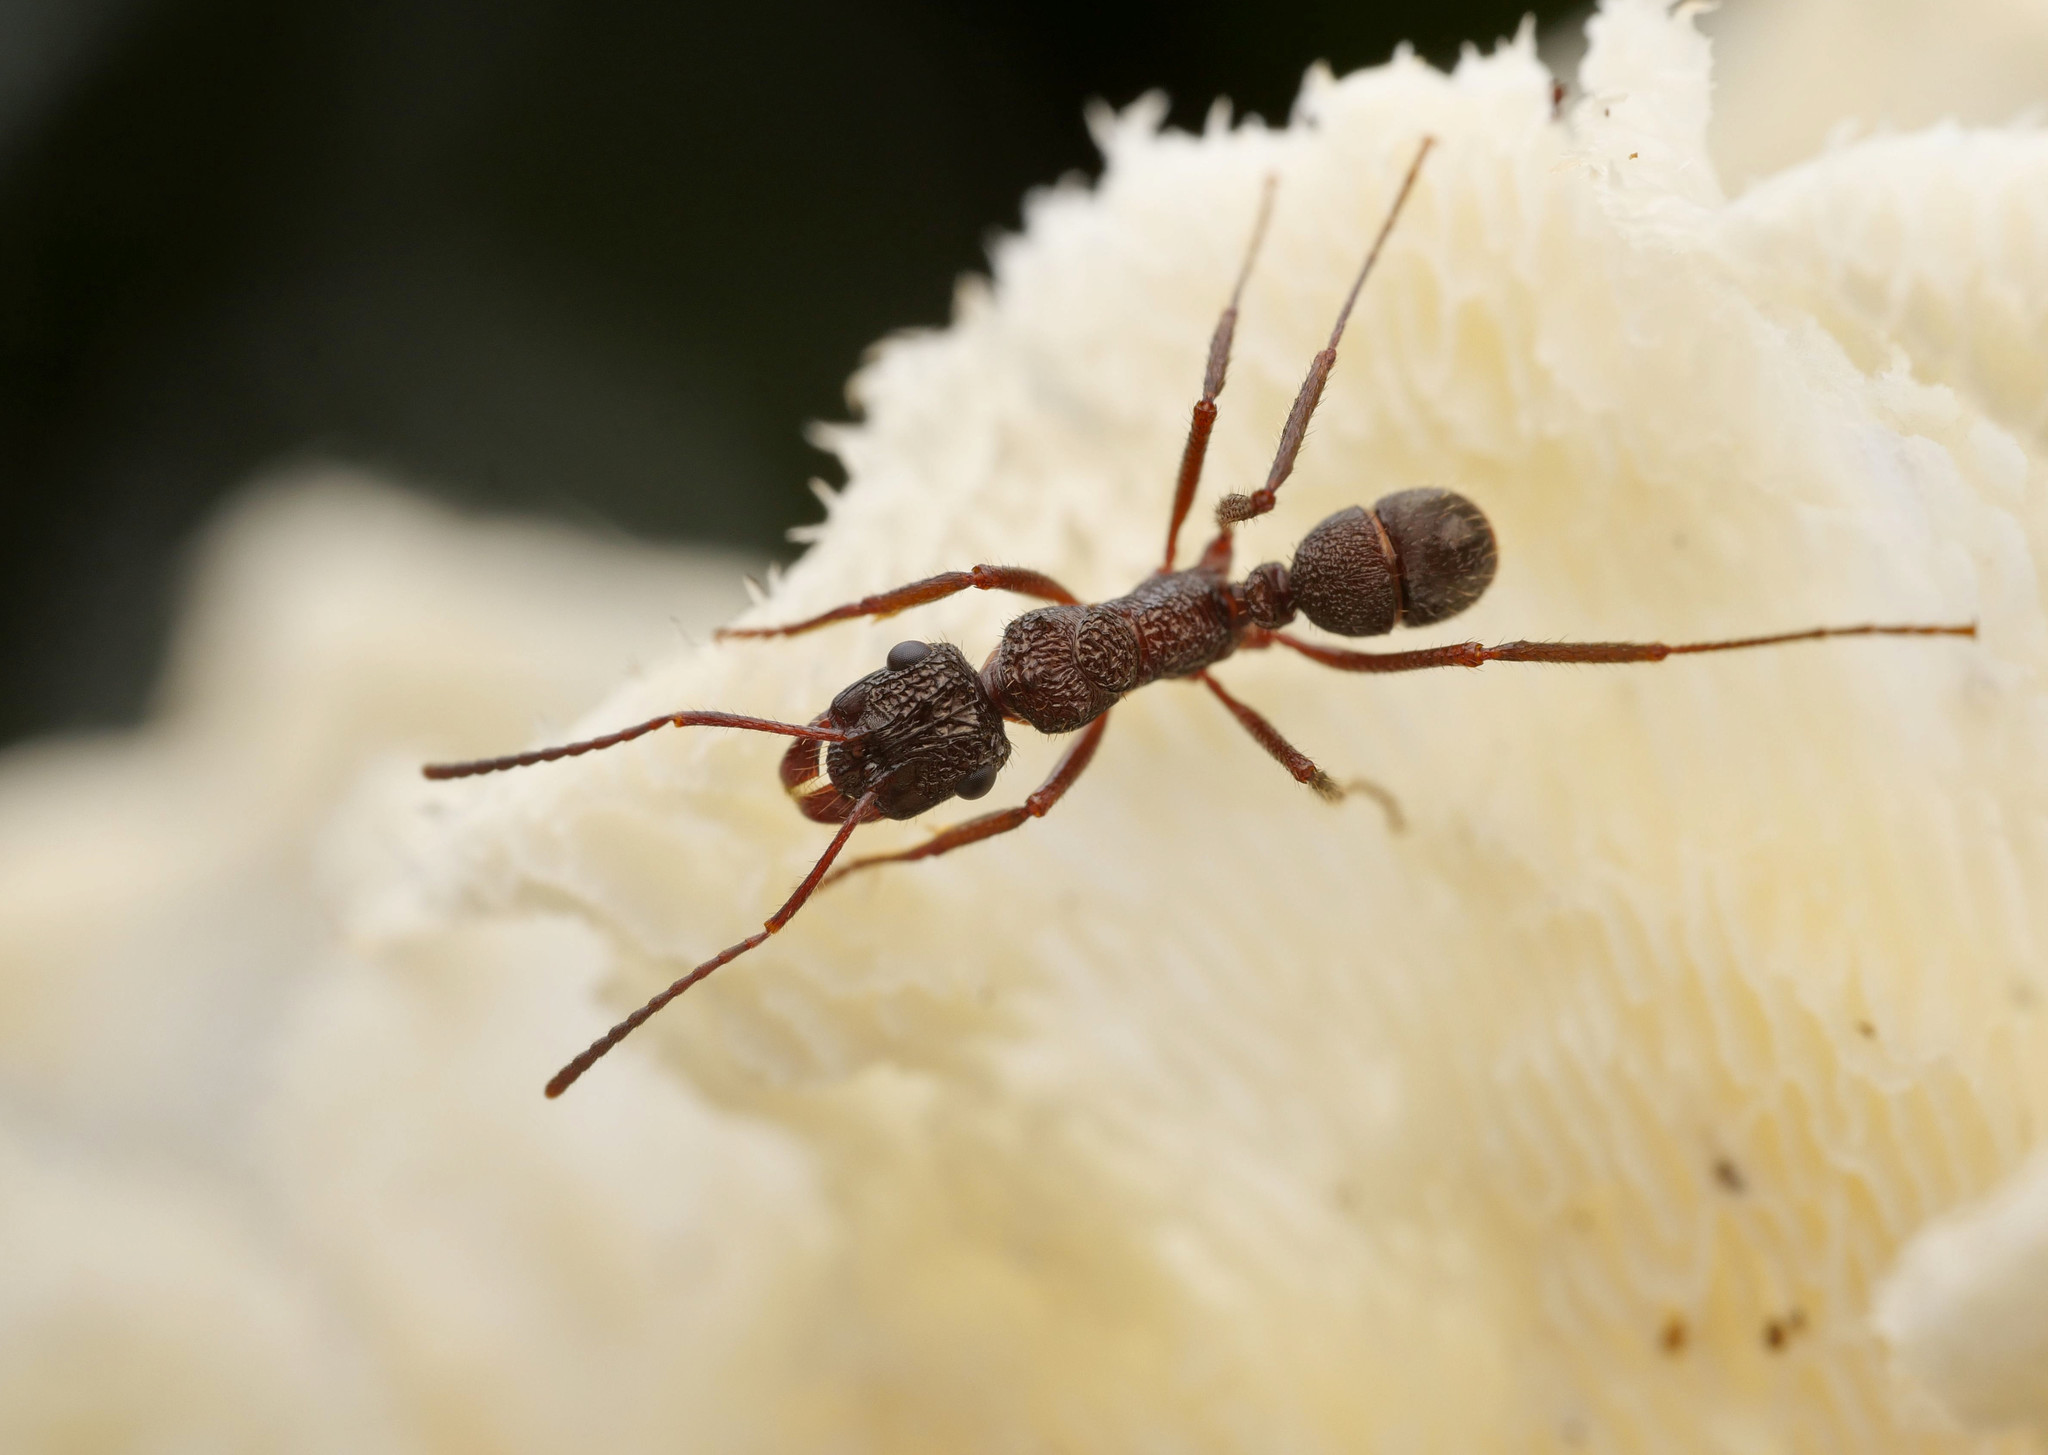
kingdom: Animalia
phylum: Arthropoda
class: Insecta
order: Hymenoptera
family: Formicidae
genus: Ectatomma
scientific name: Ectatomma ruidum
